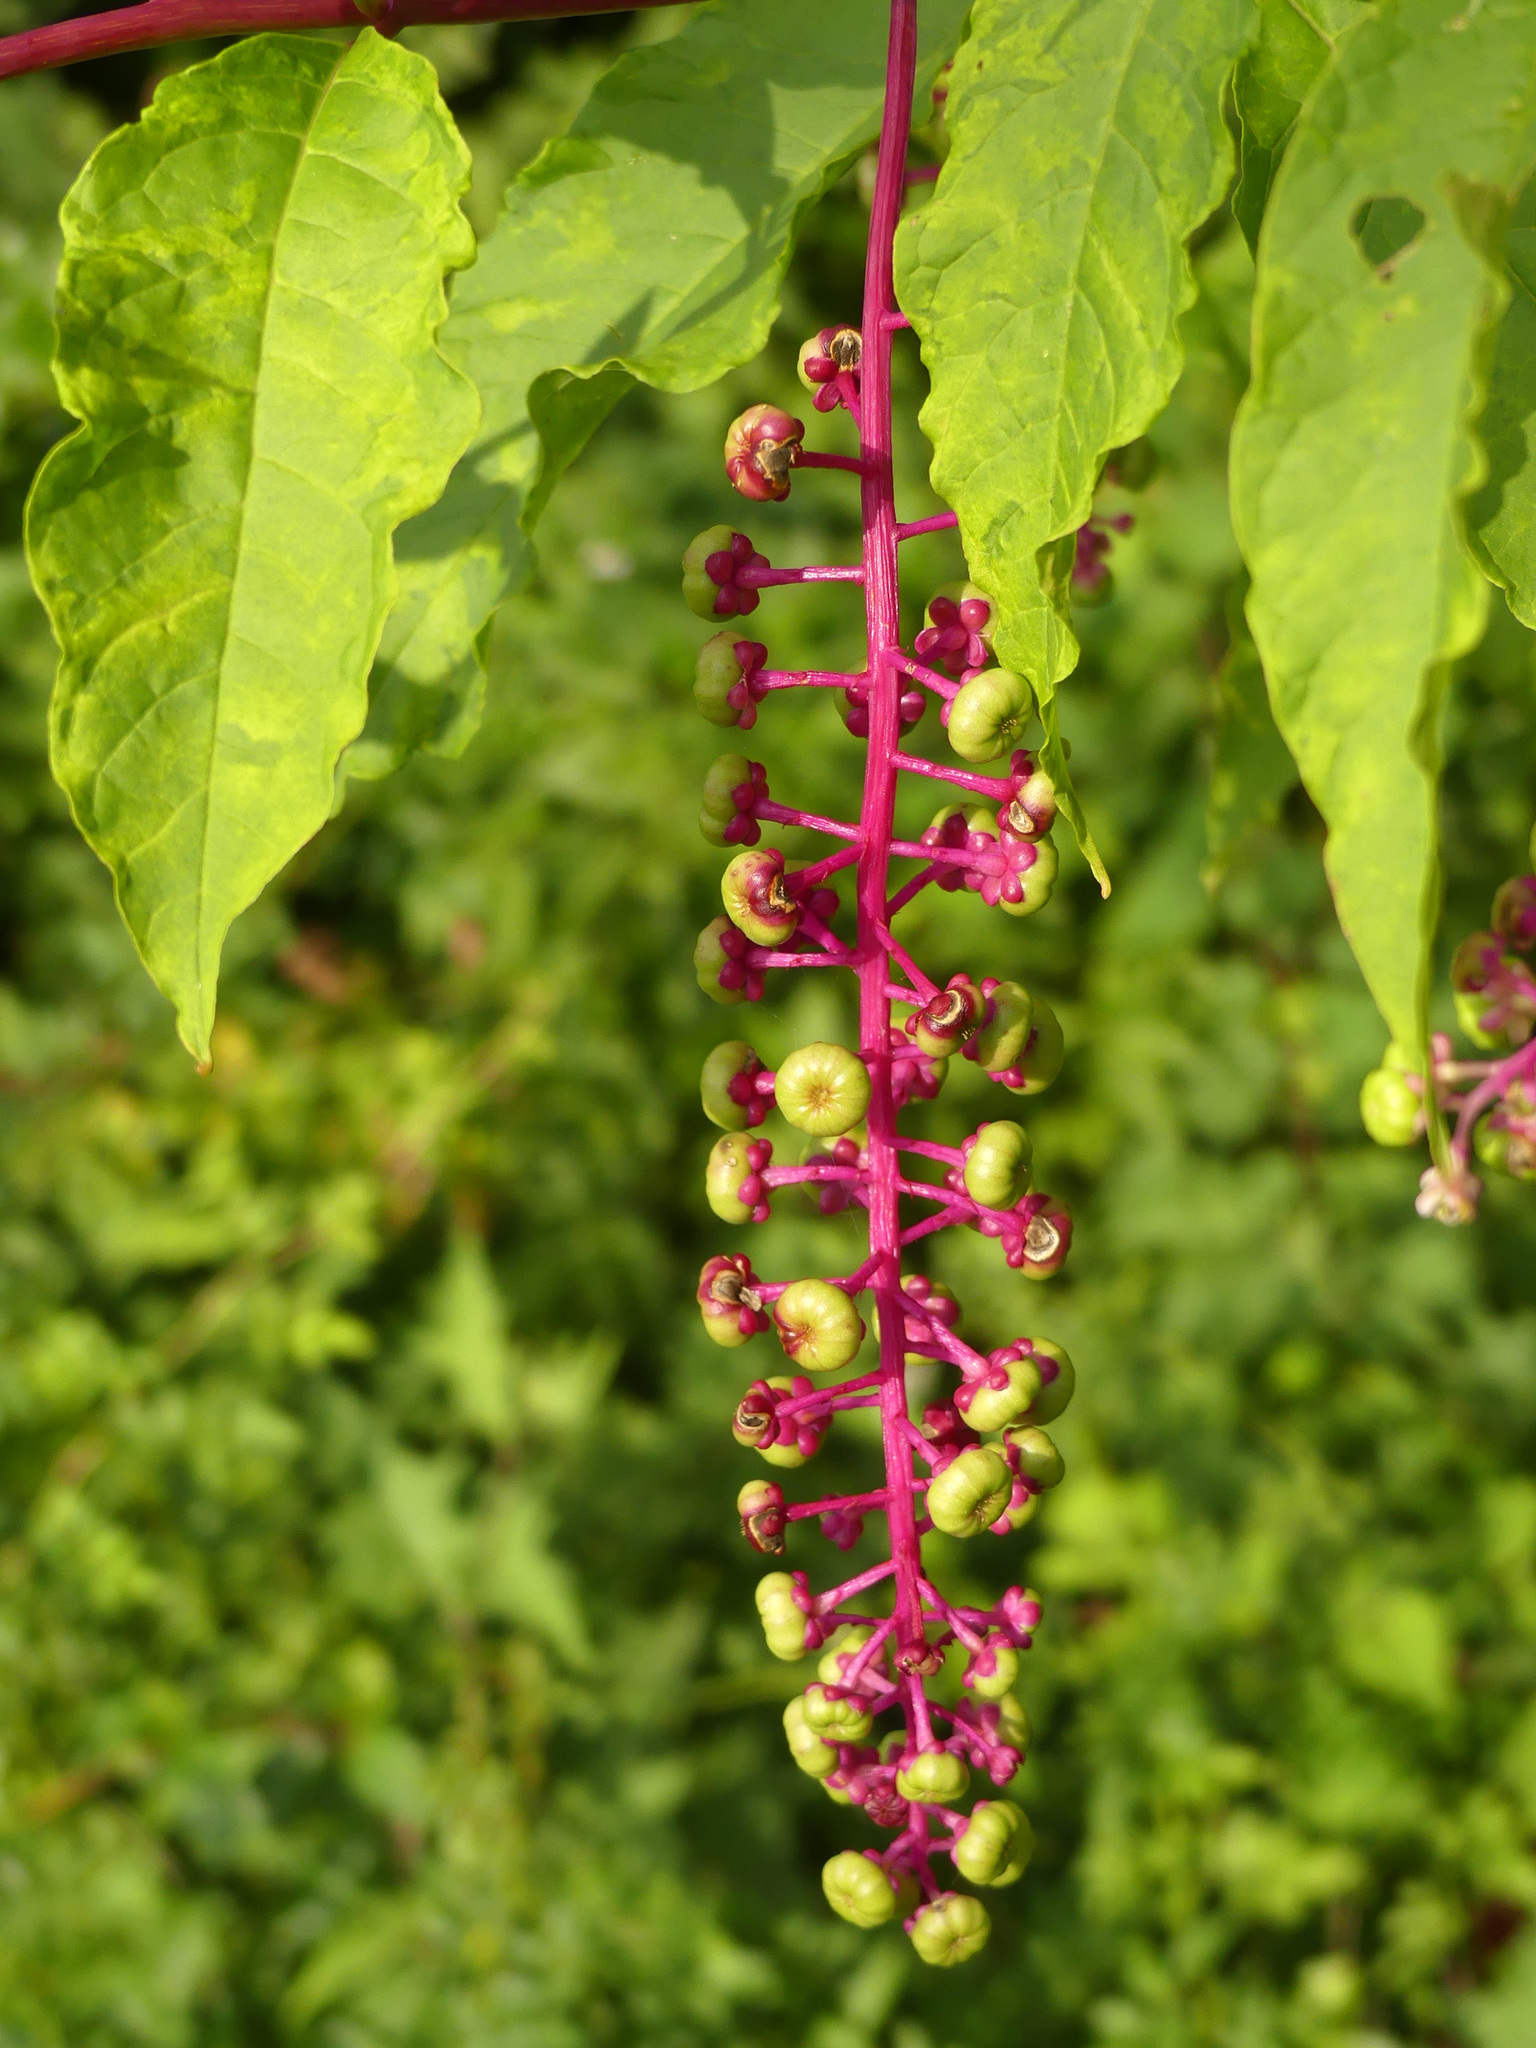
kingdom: Plantae
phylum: Tracheophyta
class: Magnoliopsida
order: Caryophyllales
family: Phytolaccaceae
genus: Phytolacca
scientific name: Phytolacca americana
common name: American pokeweed
